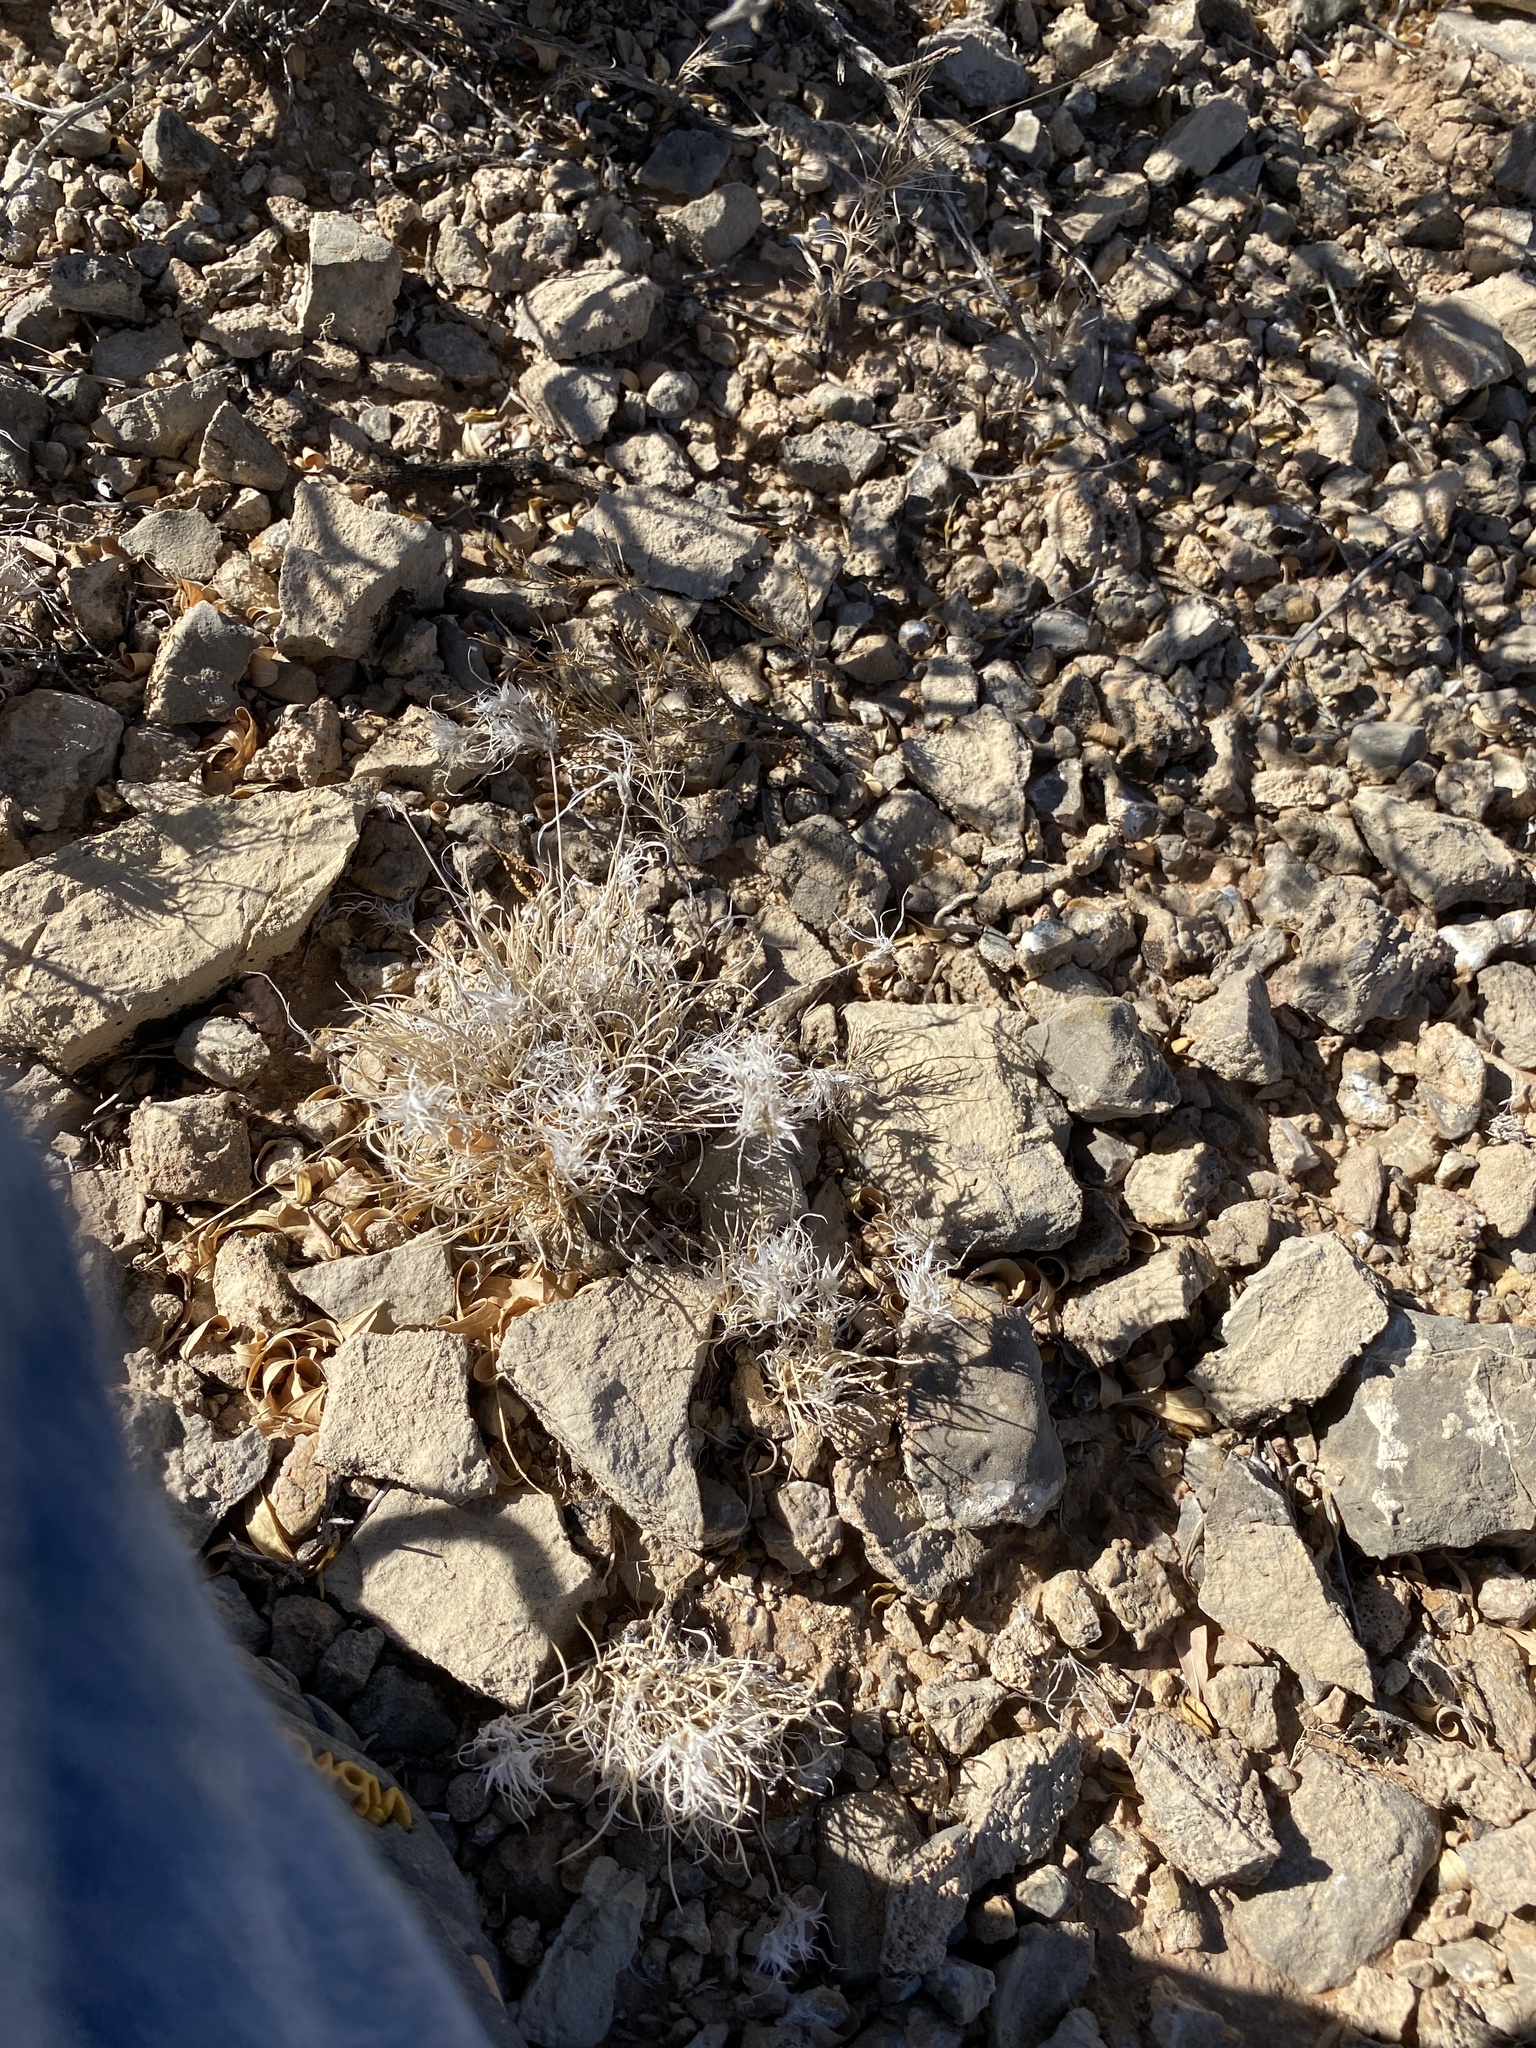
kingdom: Plantae
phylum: Tracheophyta
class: Liliopsida
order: Poales
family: Poaceae
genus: Dasyochloa
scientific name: Dasyochloa pulchella
